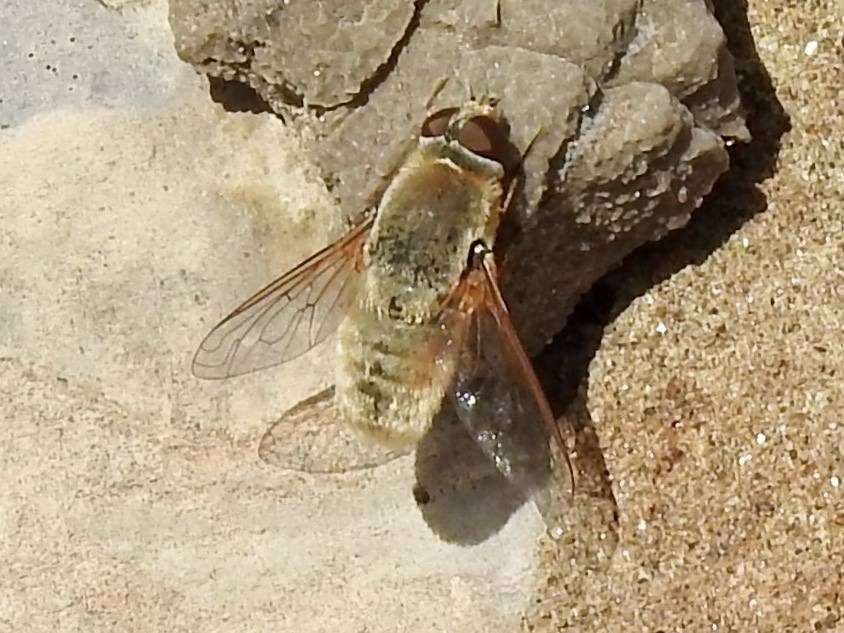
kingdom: Animalia
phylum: Arthropoda
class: Insecta
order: Diptera
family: Bombyliidae
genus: Paravilla
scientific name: Paravilla flavipilosa
